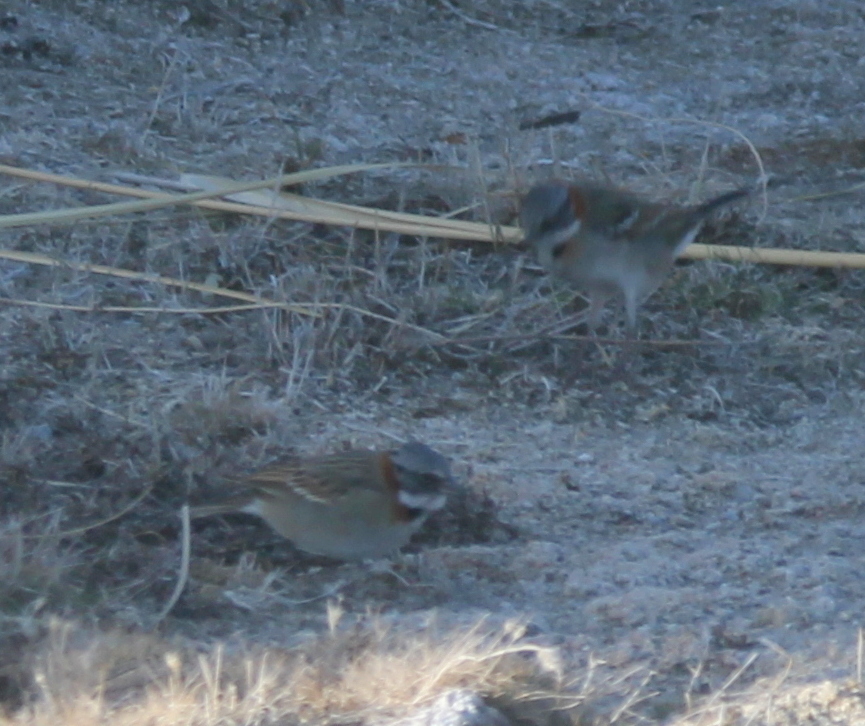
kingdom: Animalia
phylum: Chordata
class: Aves
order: Passeriformes
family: Passerellidae
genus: Zonotrichia
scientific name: Zonotrichia capensis
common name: Rufous-collared sparrow
